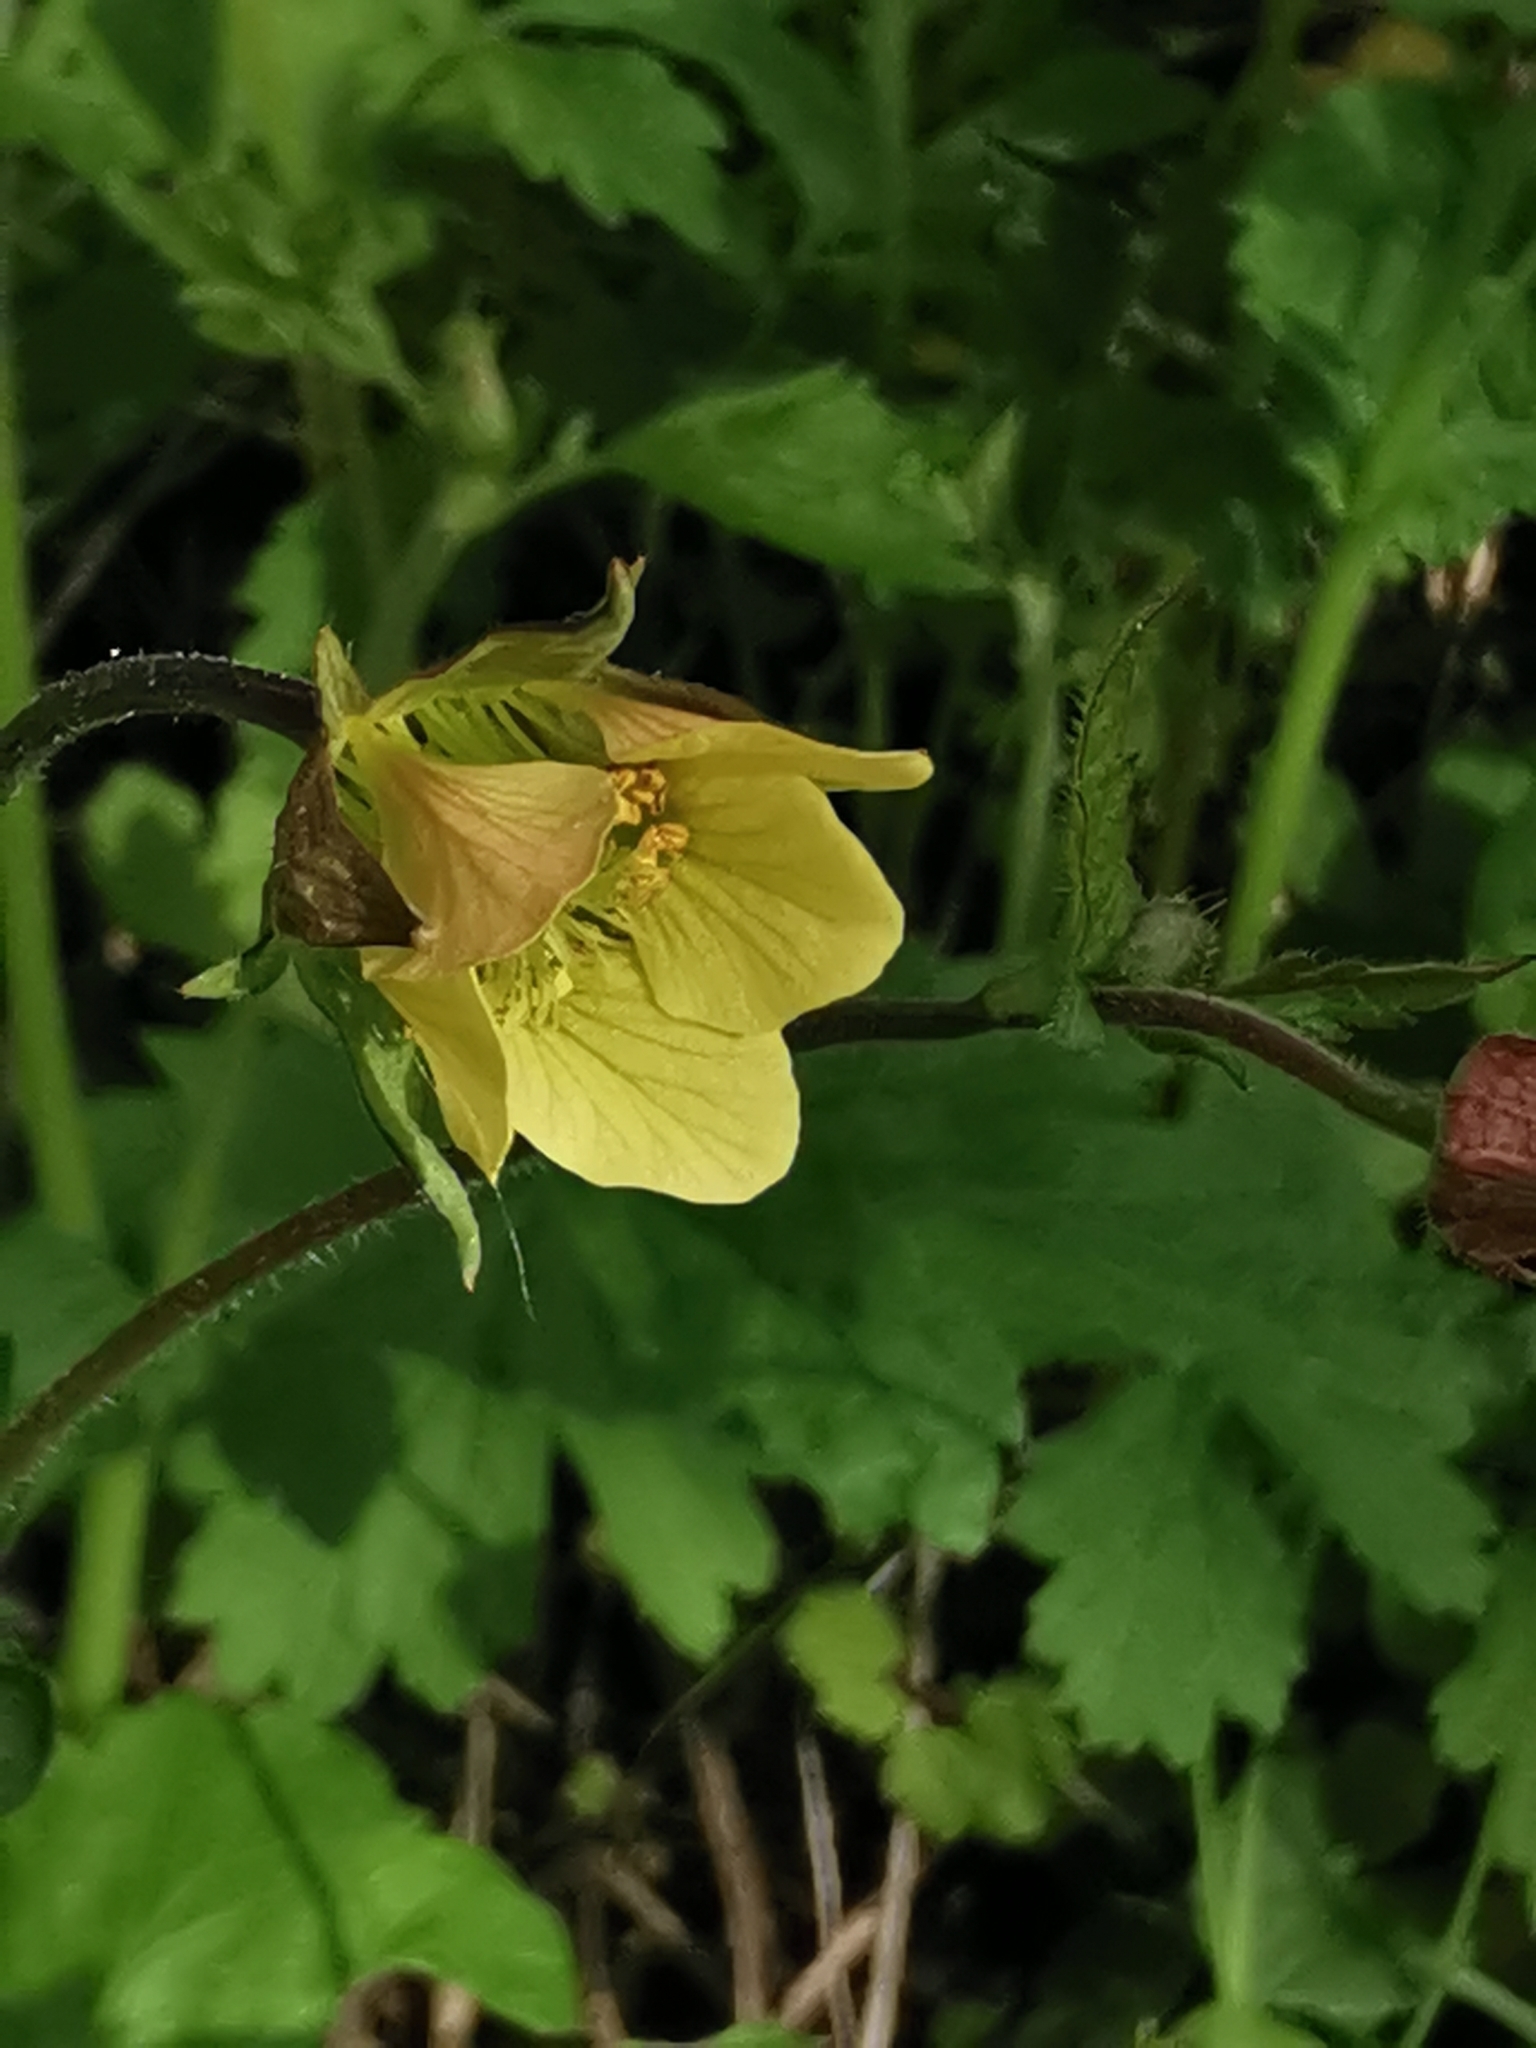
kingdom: Plantae
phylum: Tracheophyta
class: Magnoliopsida
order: Rosales
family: Rosaceae
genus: Geum
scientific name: Geum intermedium
